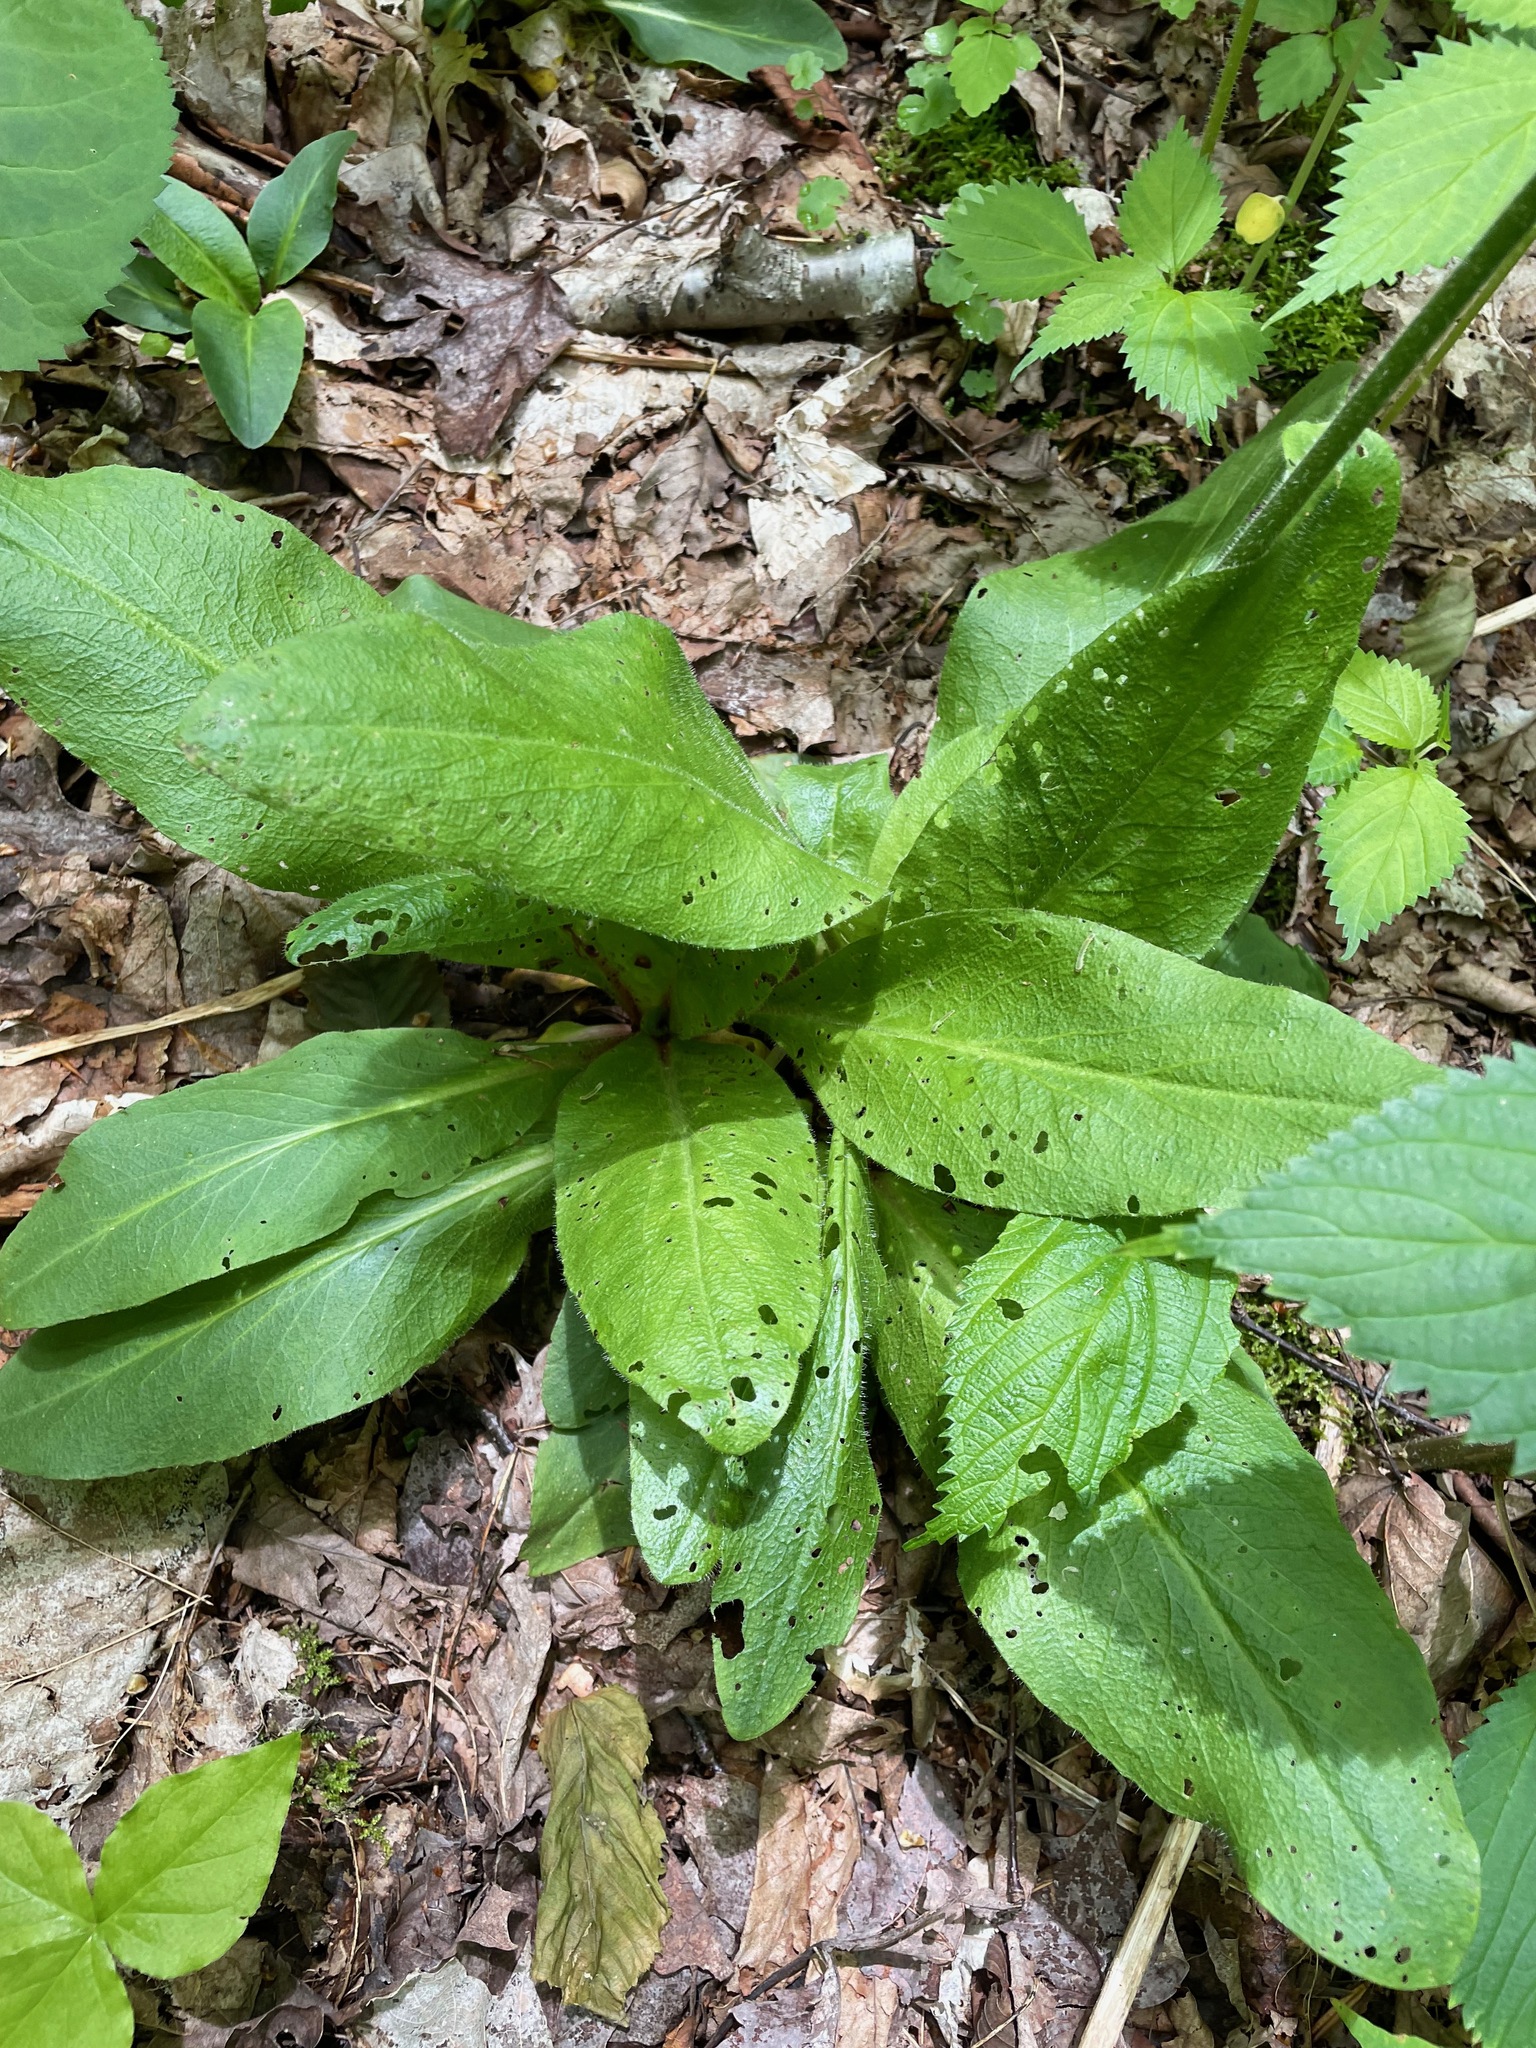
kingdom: Plantae
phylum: Tracheophyta
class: Magnoliopsida
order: Saxifragales
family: Saxifragaceae
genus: Micranthes
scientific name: Micranthes pensylvanica
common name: Marsh saxifrage
